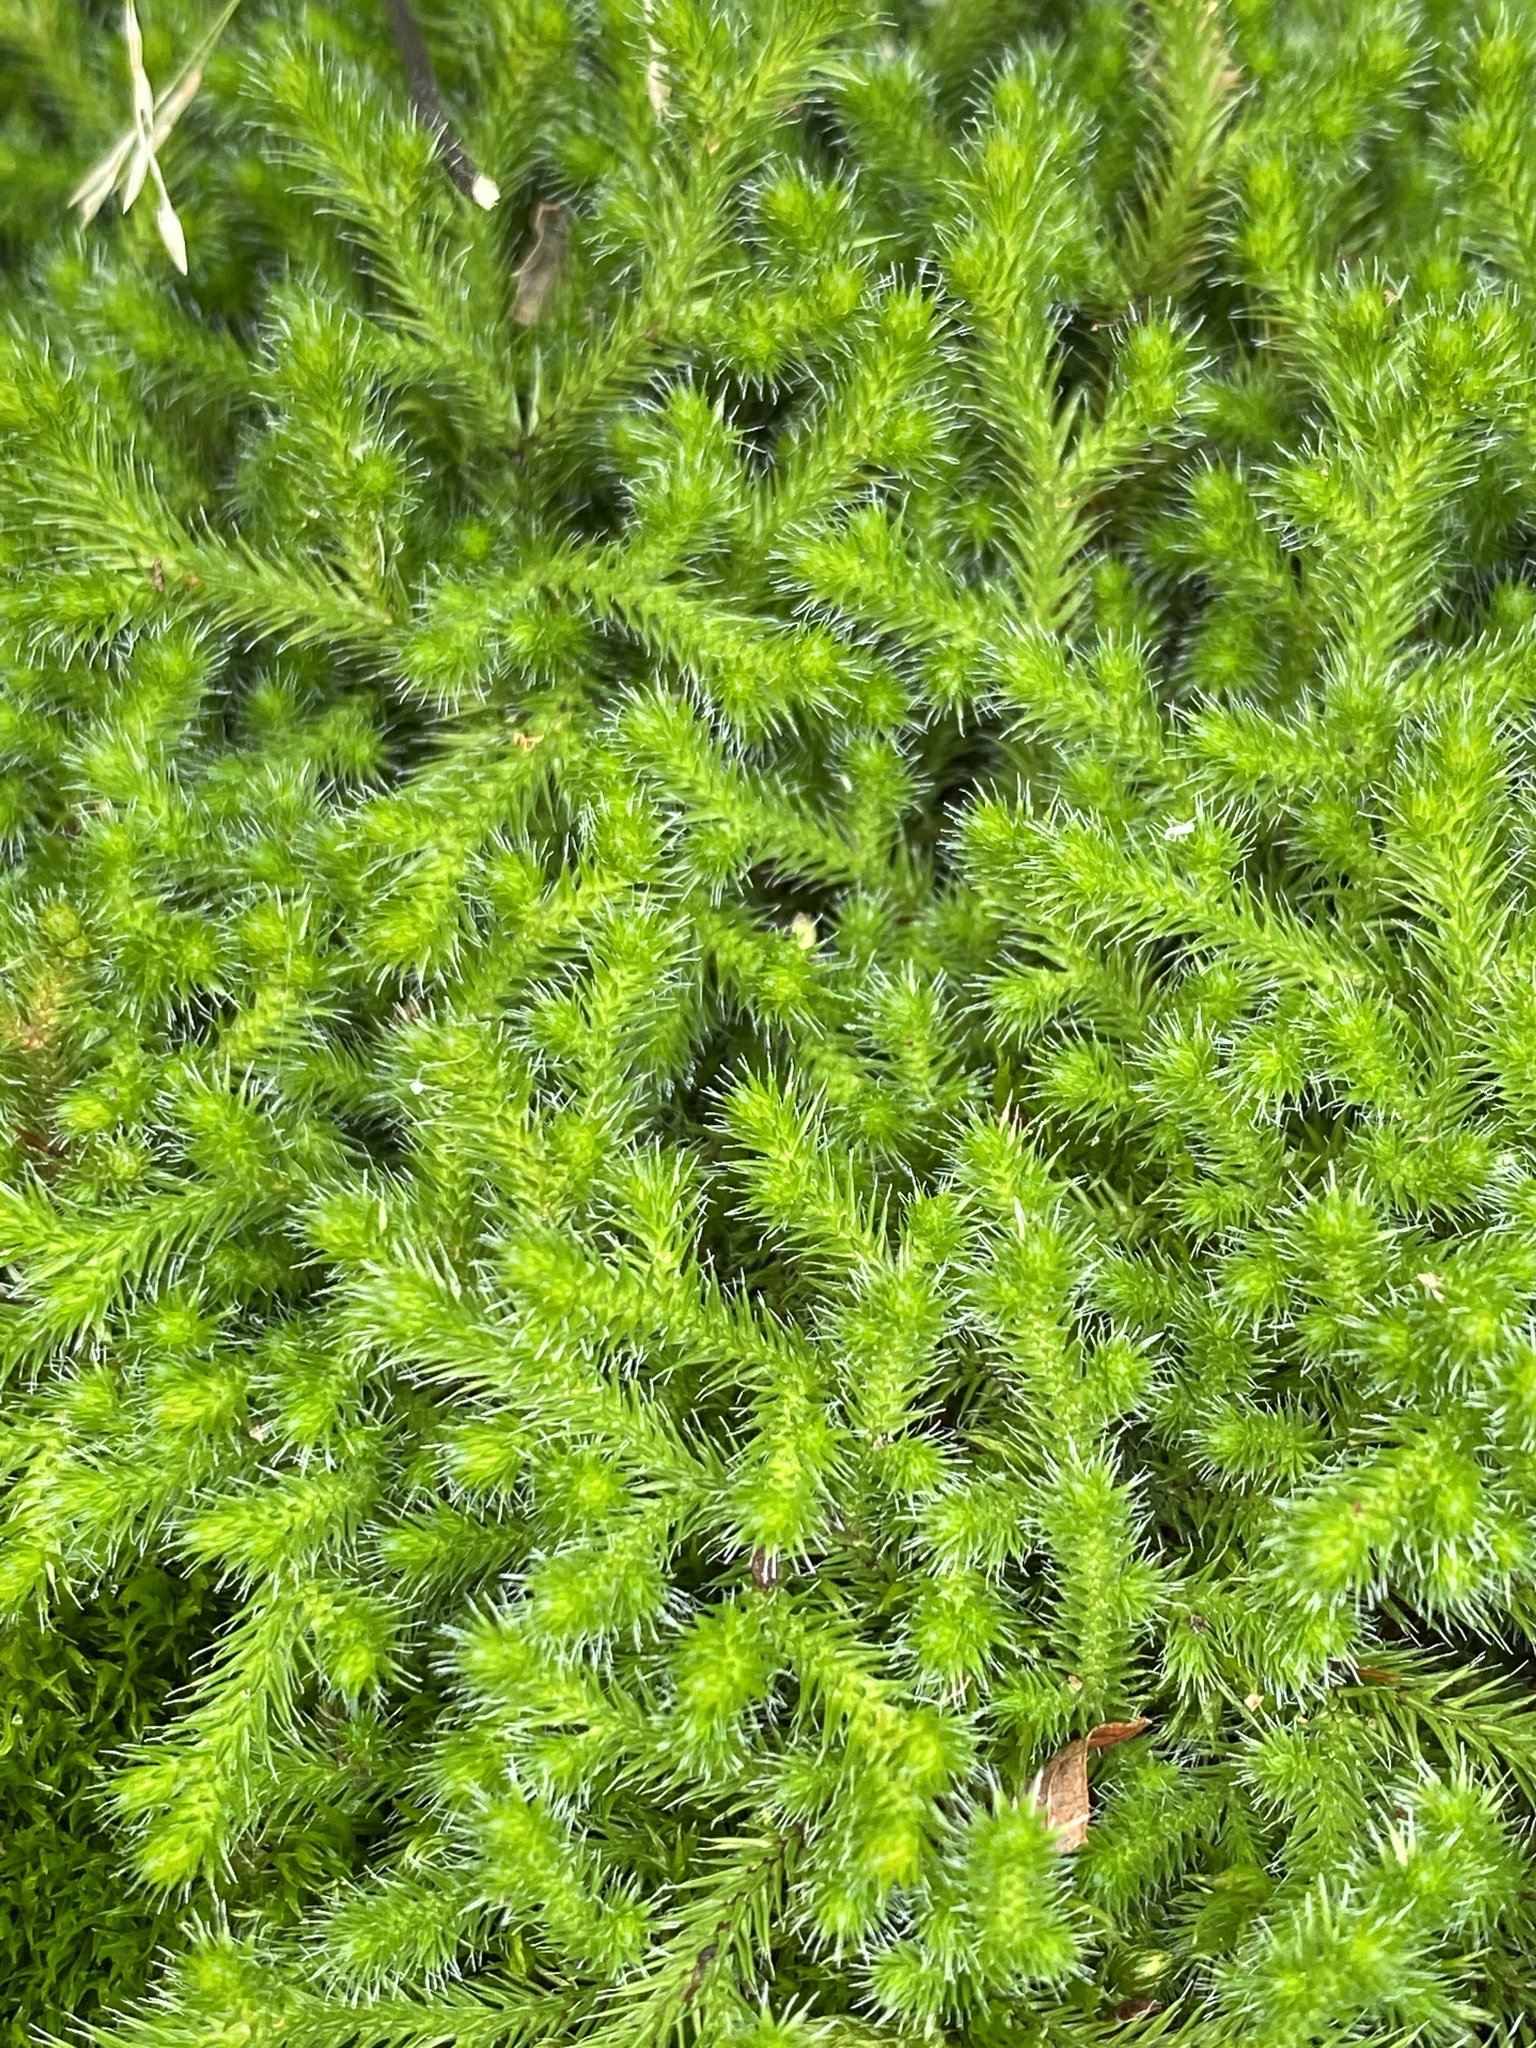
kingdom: Plantae
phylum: Tracheophyta
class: Lycopodiopsida
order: Selaginellales
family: Selaginellaceae
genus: Selaginella
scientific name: Selaginella rupestris
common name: Dwarf spikemoss
